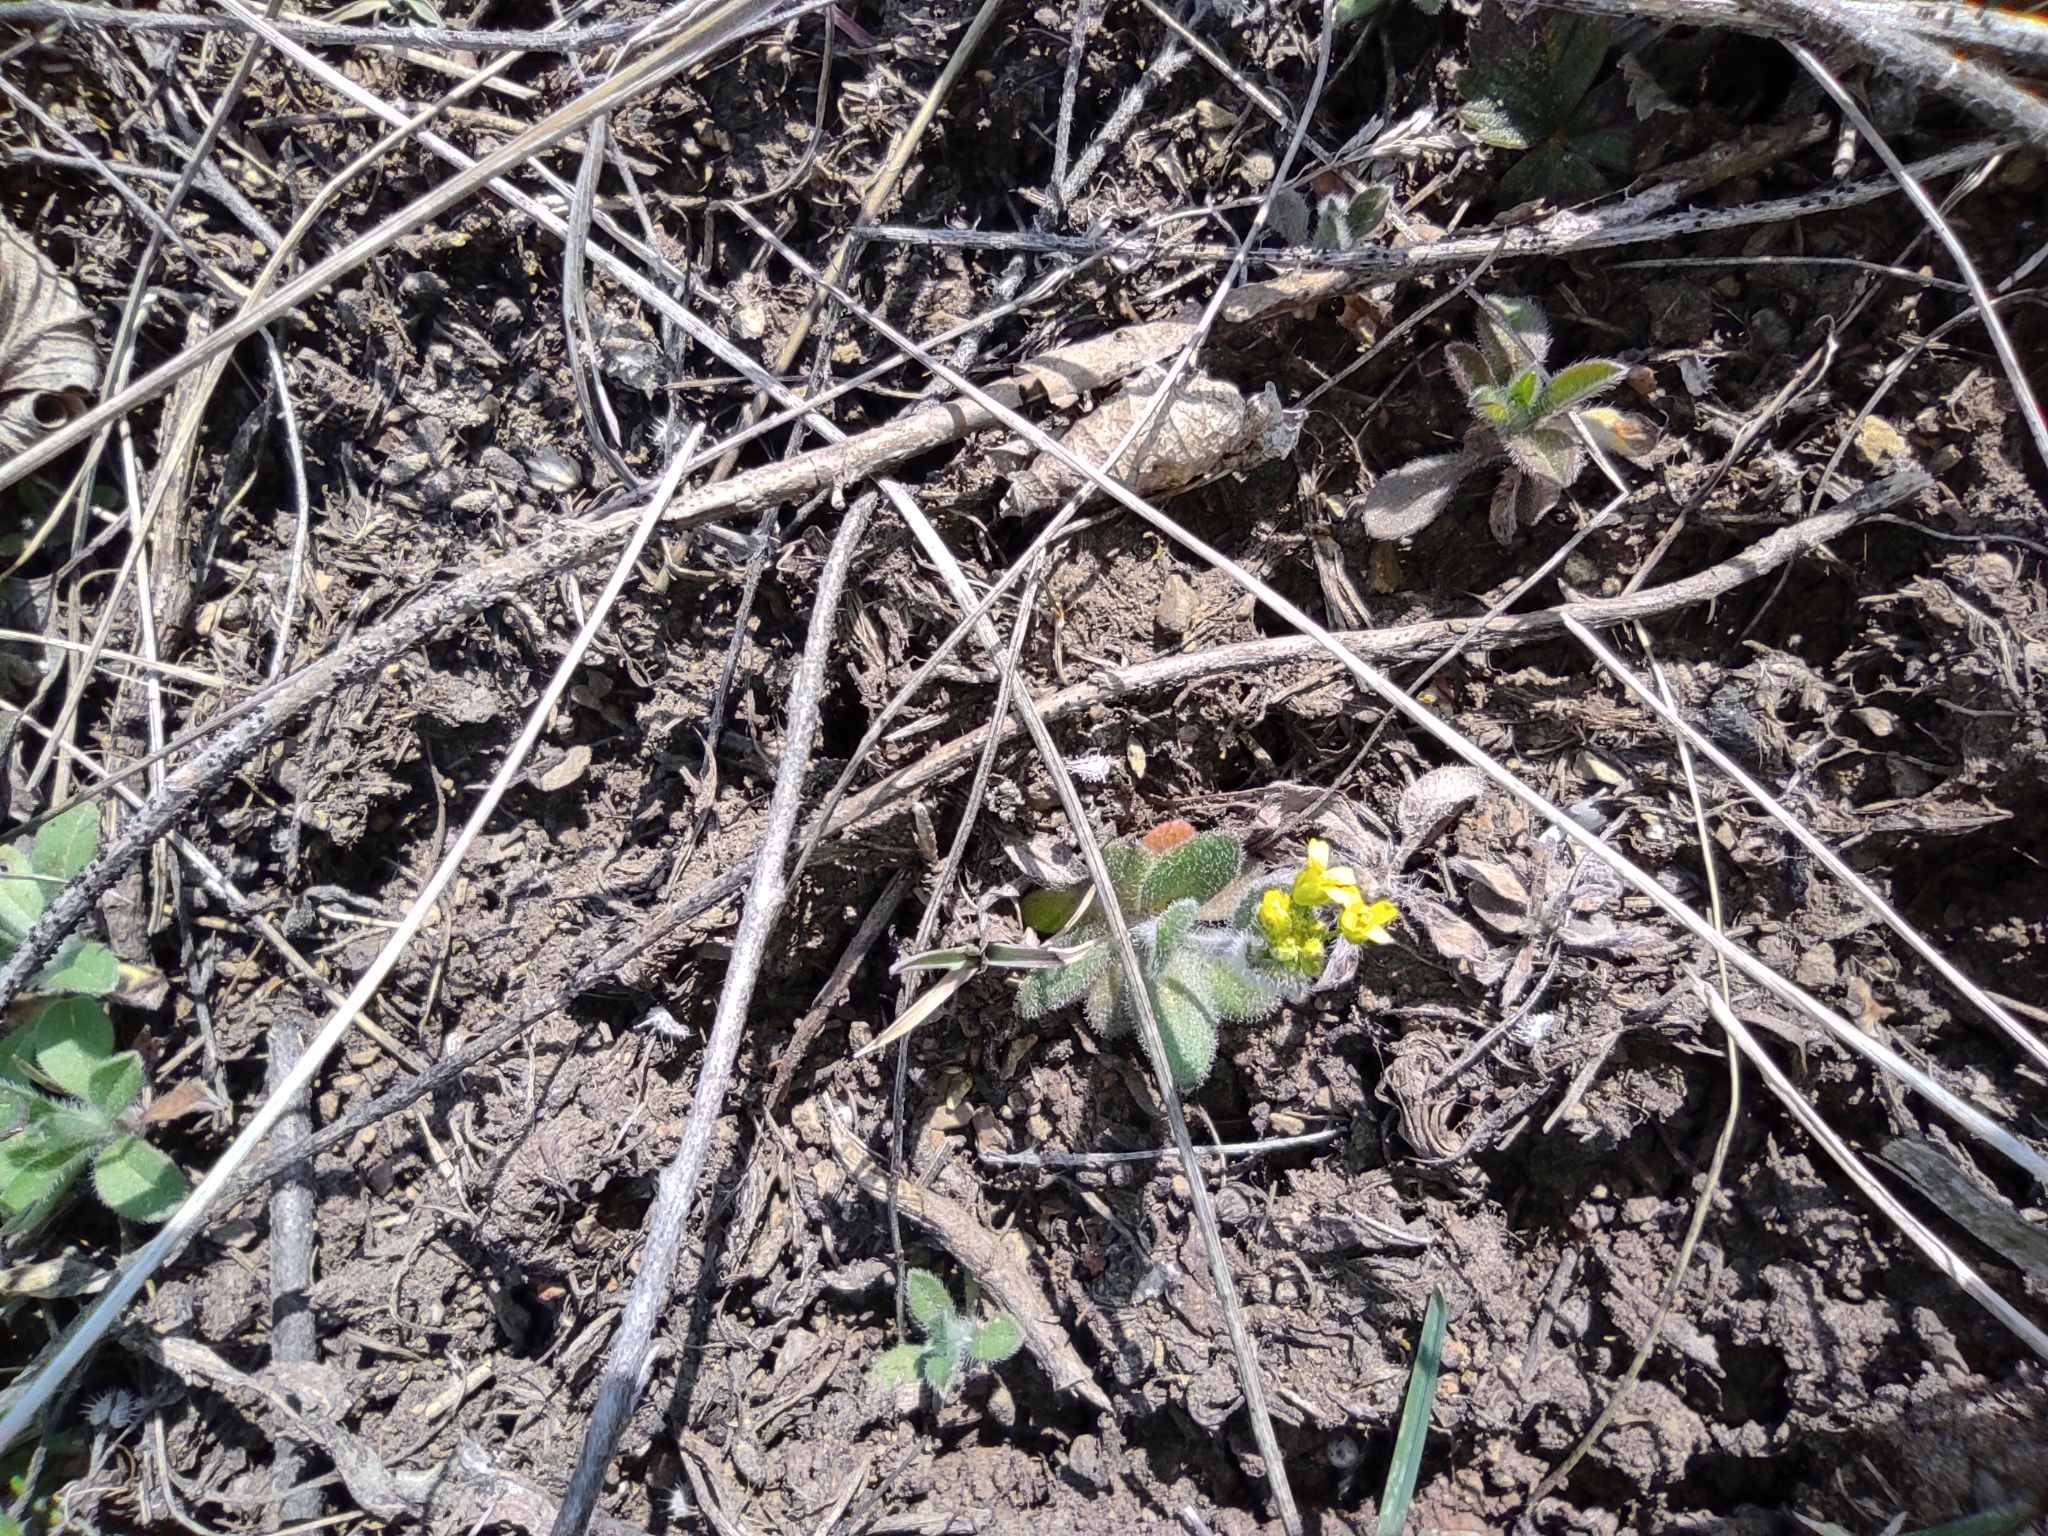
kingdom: Plantae
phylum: Tracheophyta
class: Magnoliopsida
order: Brassicales
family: Brassicaceae
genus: Draba
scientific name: Draba nemorosa
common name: Wood whitlow-grass
